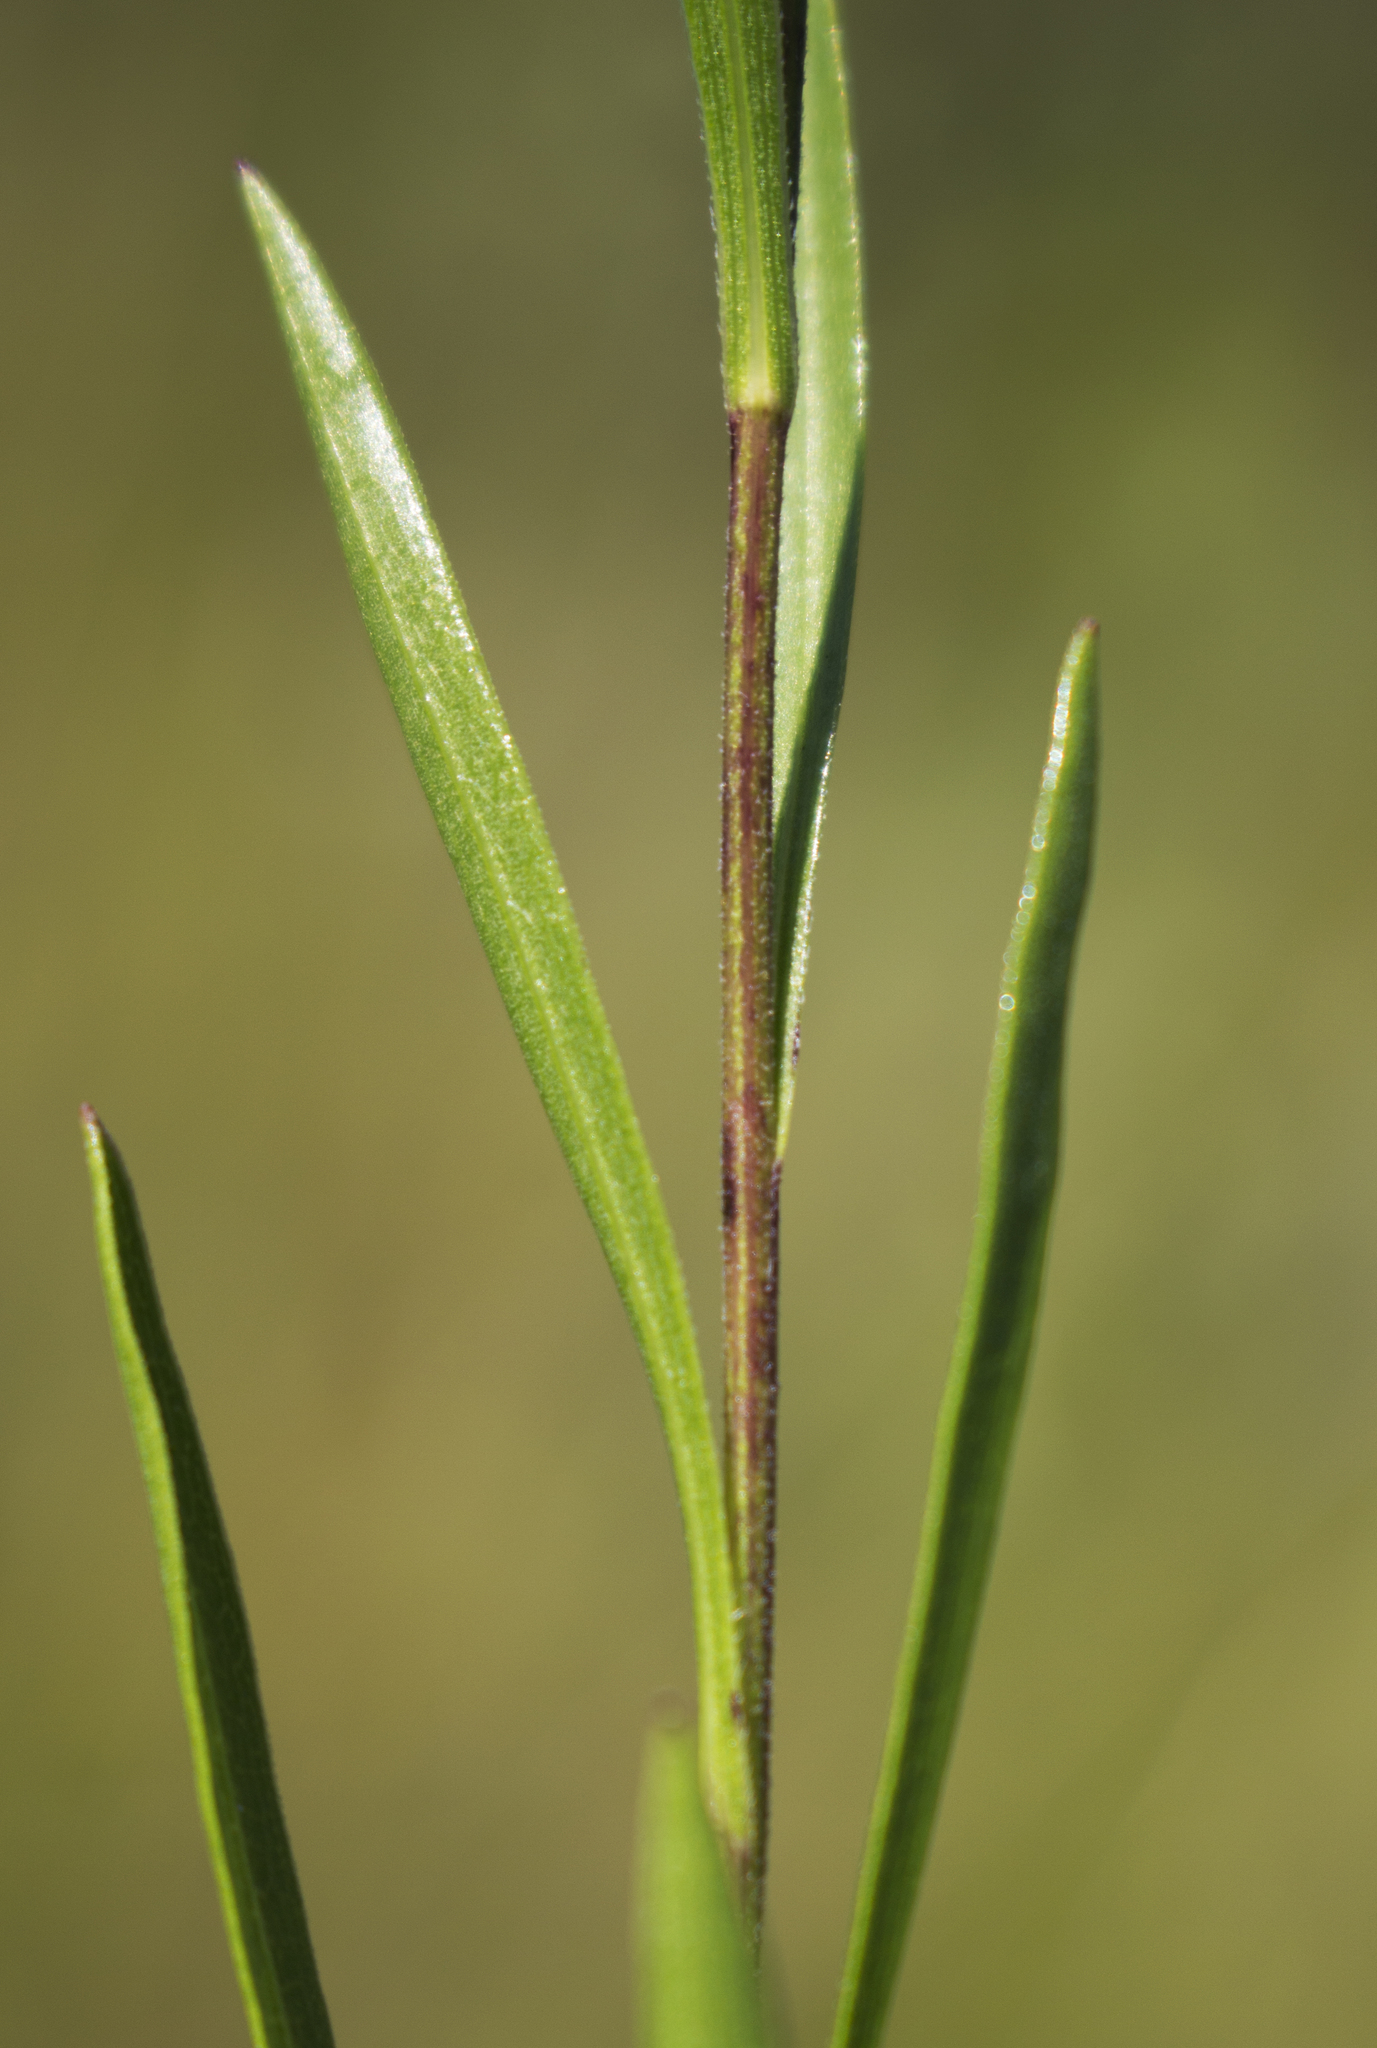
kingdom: Plantae
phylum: Tracheophyta
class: Magnoliopsida
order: Asterales
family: Asteraceae
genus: Solidago
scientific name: Solidago ptarmicoides
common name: White flat-top goldenrod
